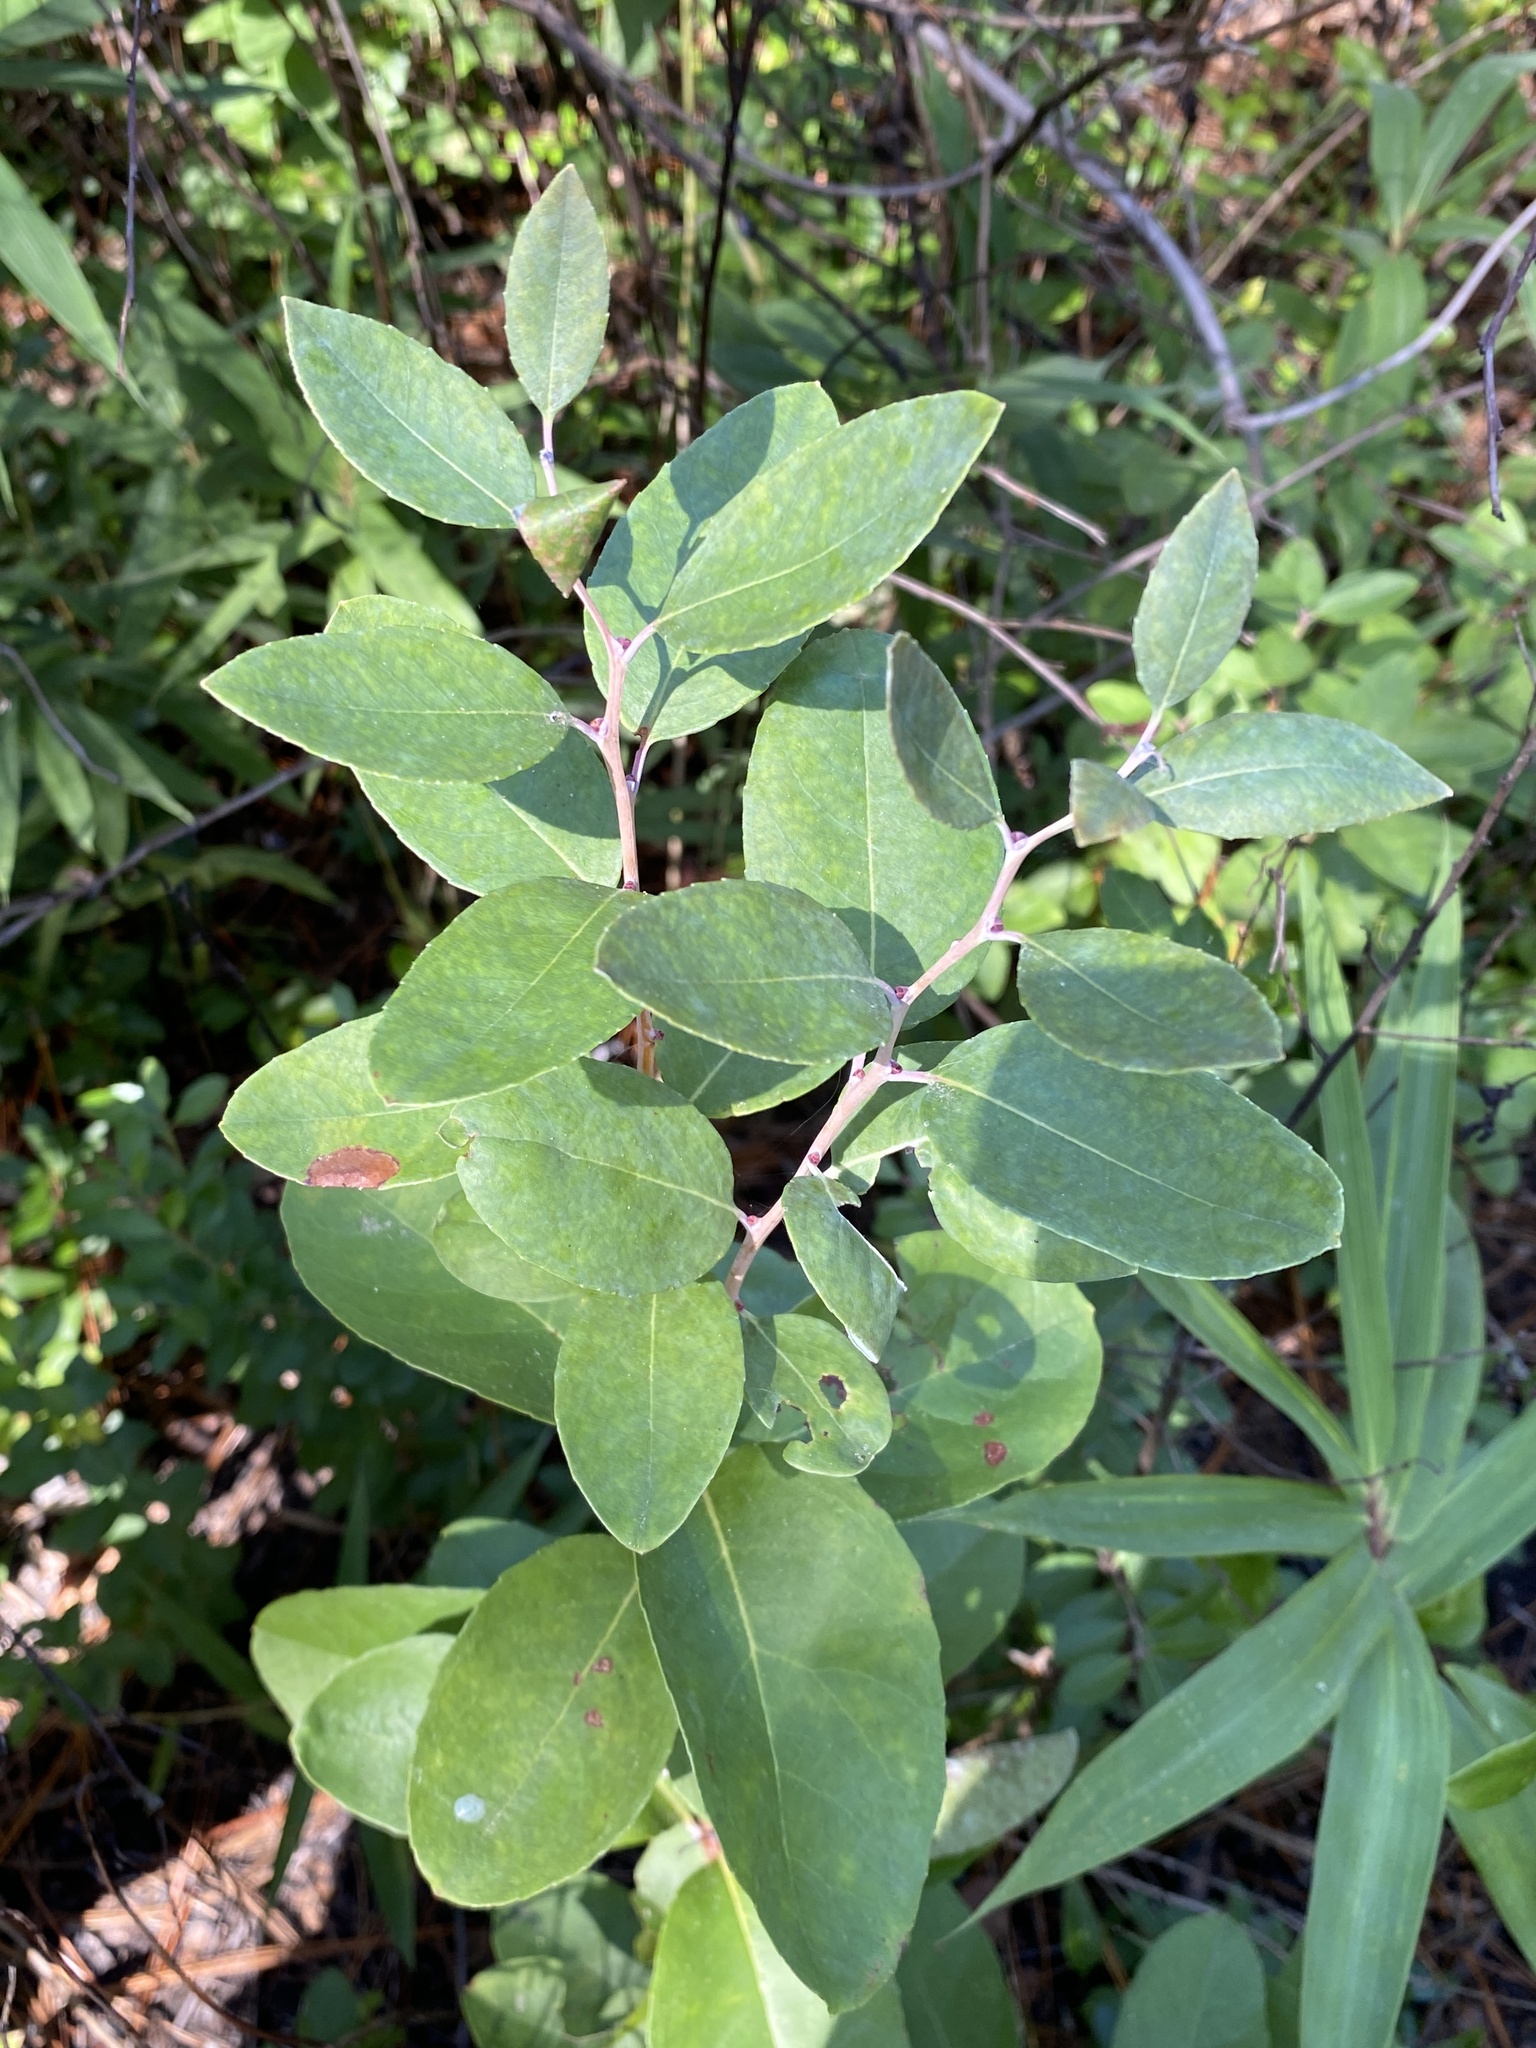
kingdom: Plantae
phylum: Tracheophyta
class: Magnoliopsida
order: Ericales
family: Ericaceae
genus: Zenobia
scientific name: Zenobia pulverulenta
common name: Zenobia
